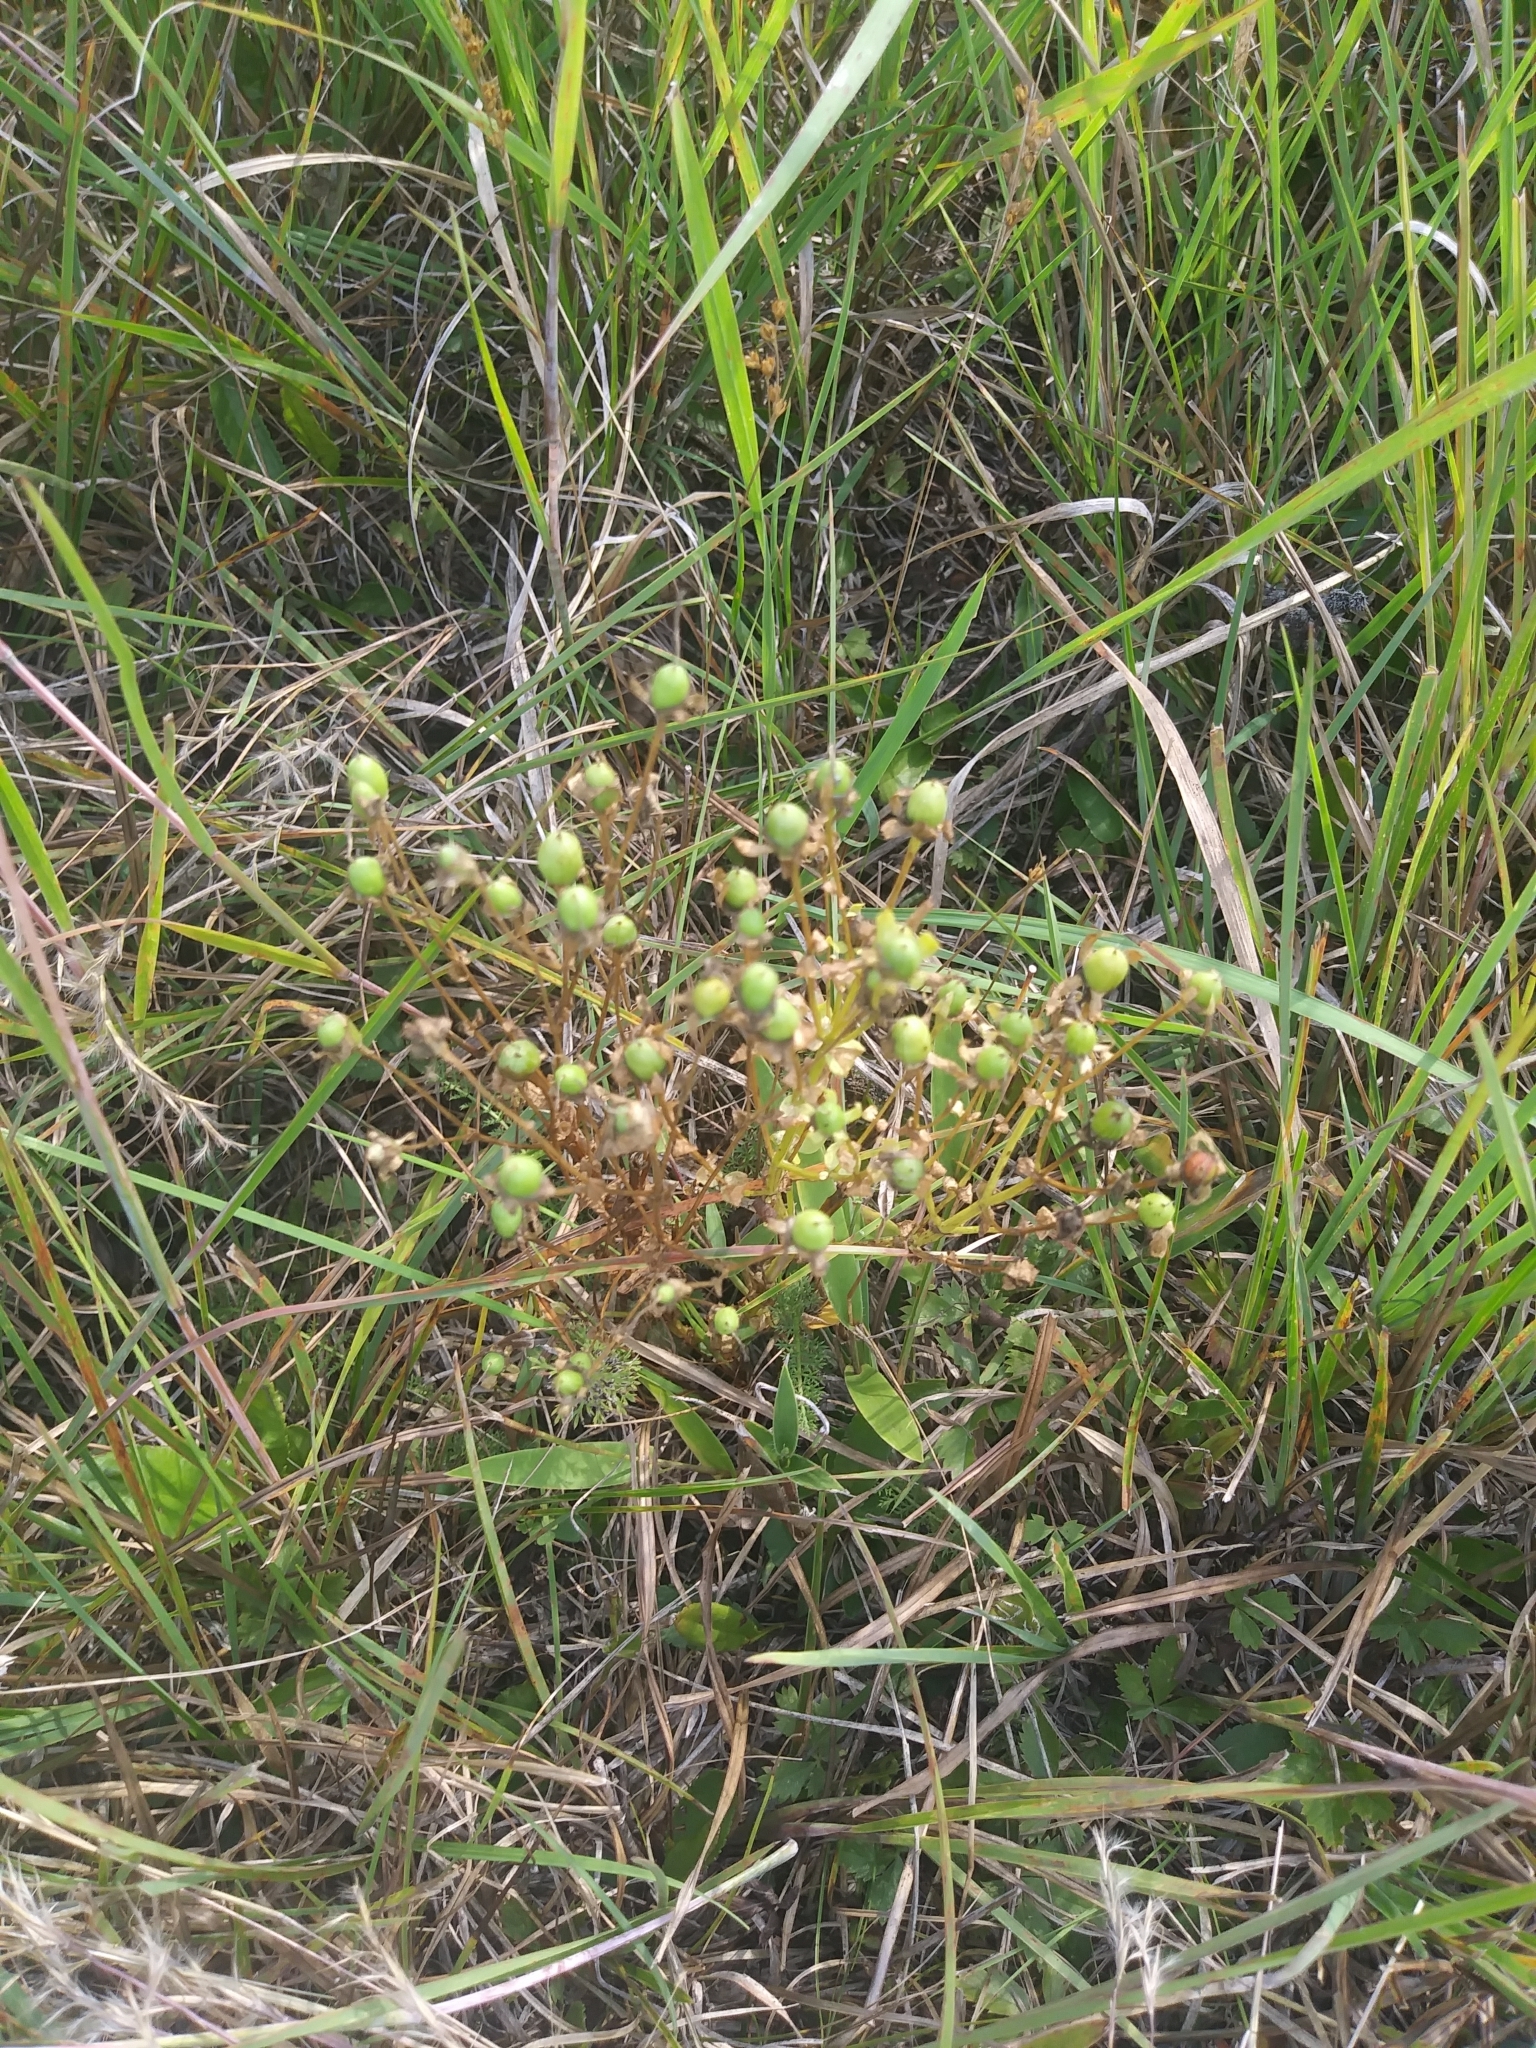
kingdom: Plantae
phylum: Tracheophyta
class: Magnoliopsida
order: Gentianales
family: Gentianaceae
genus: Sabatia
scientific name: Sabatia angularis
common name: Rose-pink
